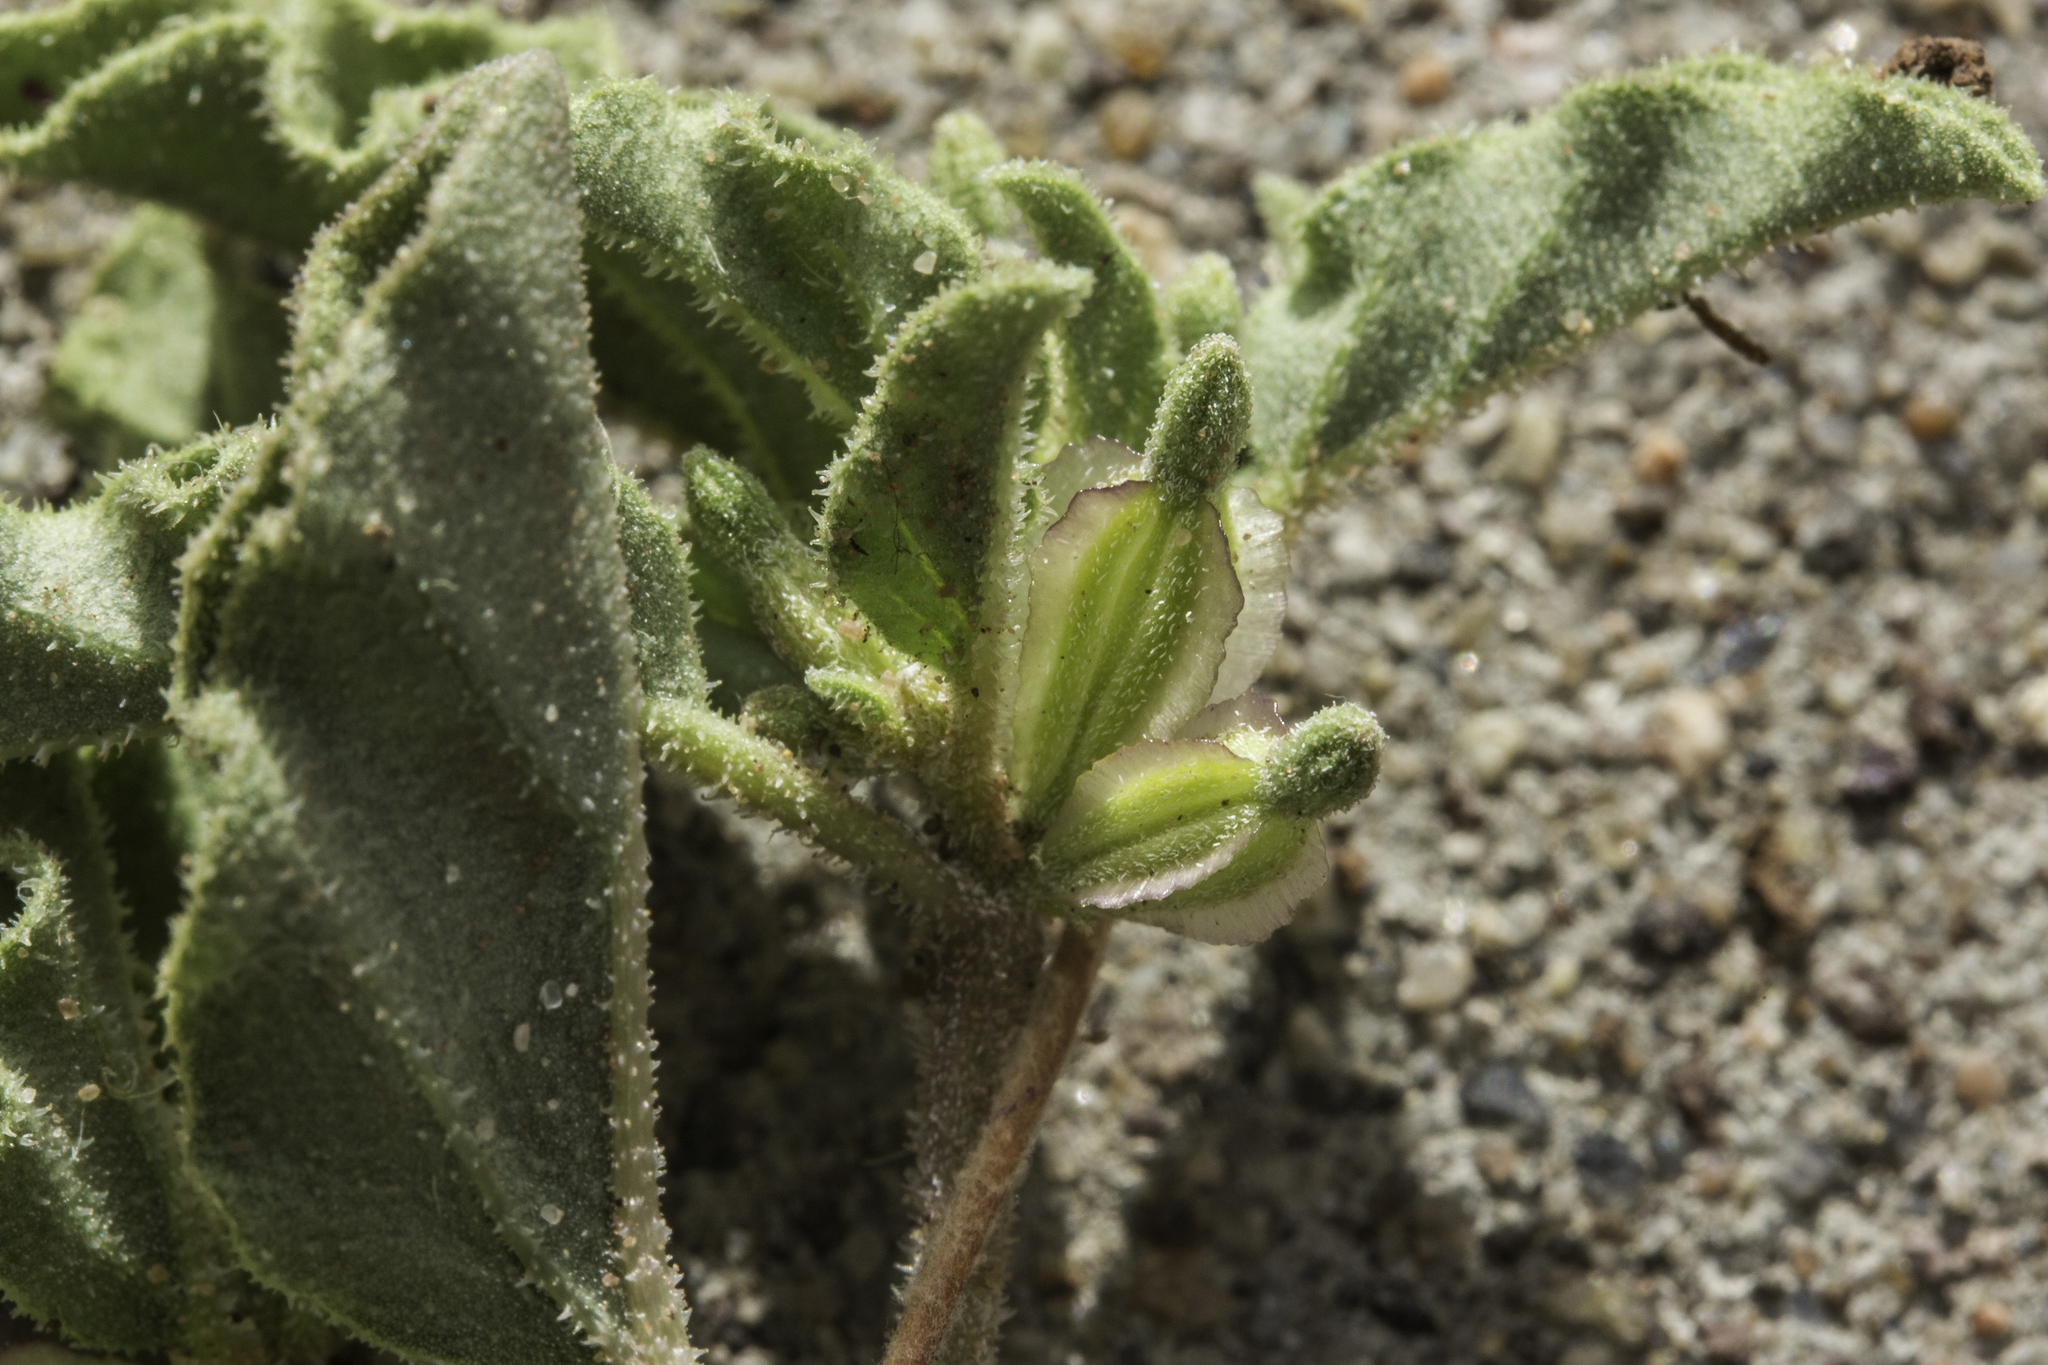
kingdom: Plantae
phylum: Tracheophyta
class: Magnoliopsida
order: Caryophyllales
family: Nyctaginaceae
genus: Acleisanthes
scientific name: Acleisanthes diffusa
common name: Spreading moonpod
